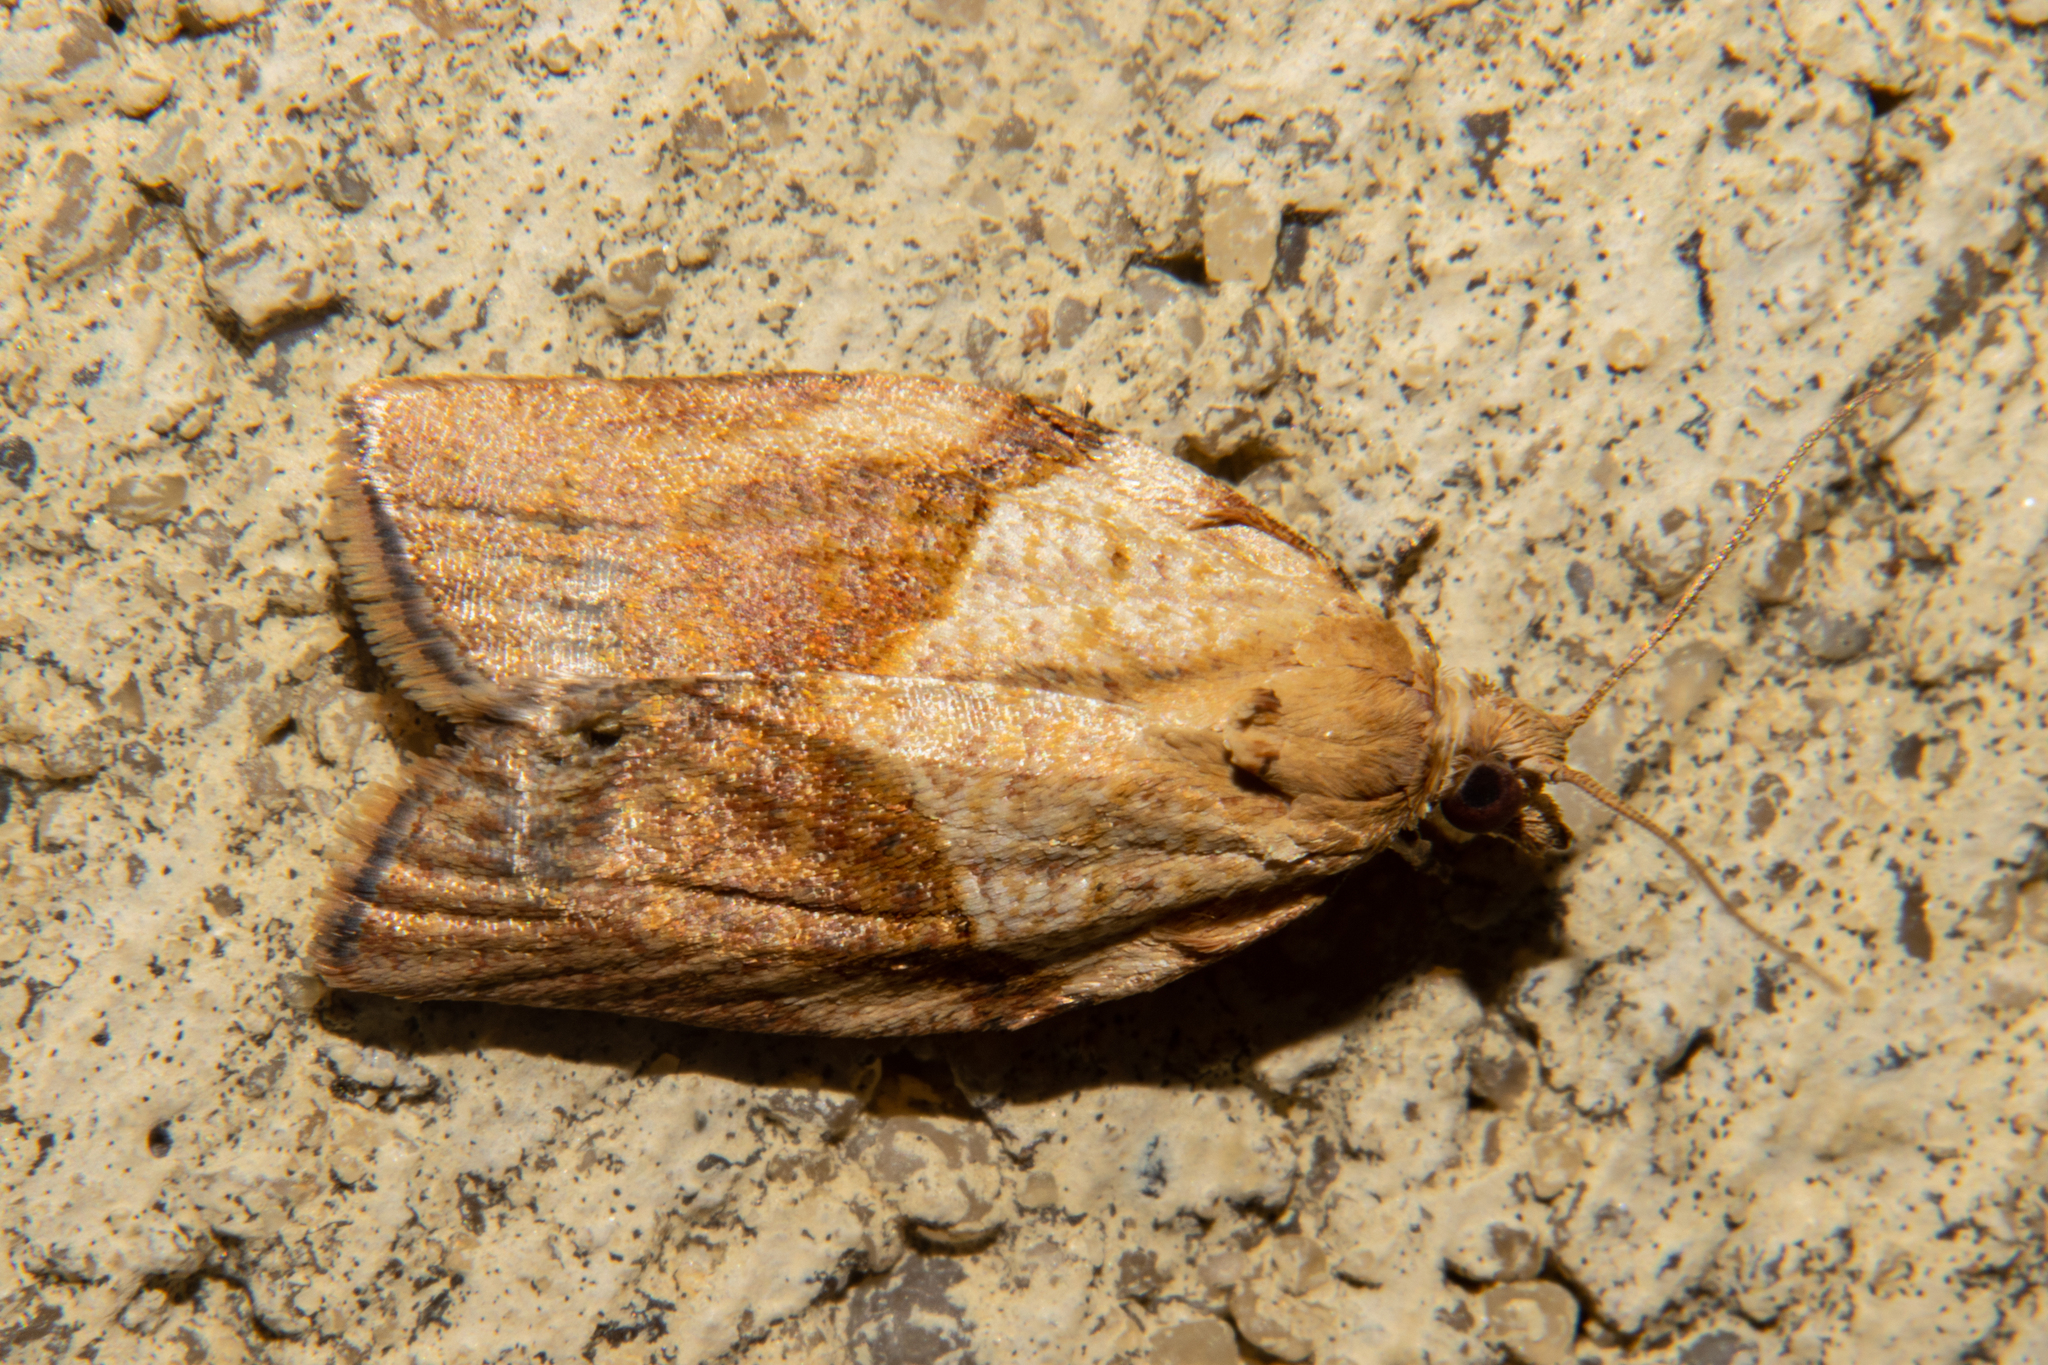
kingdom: Animalia
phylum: Arthropoda
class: Insecta
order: Lepidoptera
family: Tortricidae
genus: Epiphyas
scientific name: Epiphyas postvittana
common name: Light brown apple moth
